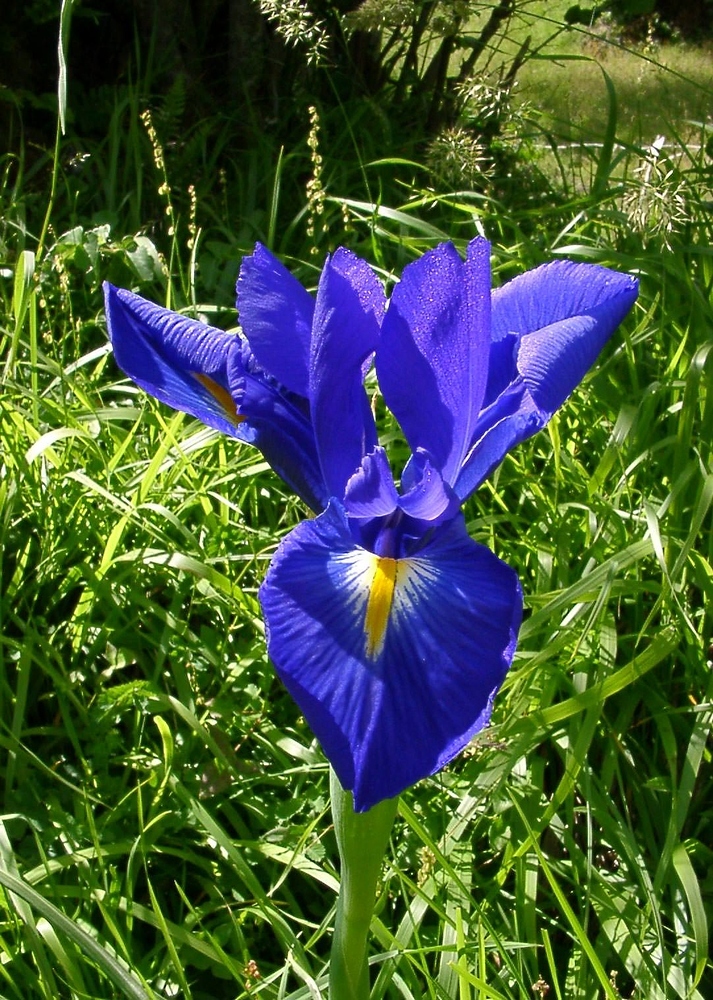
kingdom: Plantae
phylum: Tracheophyta
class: Liliopsida
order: Asparagales
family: Iridaceae
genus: Iris
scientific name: Iris
